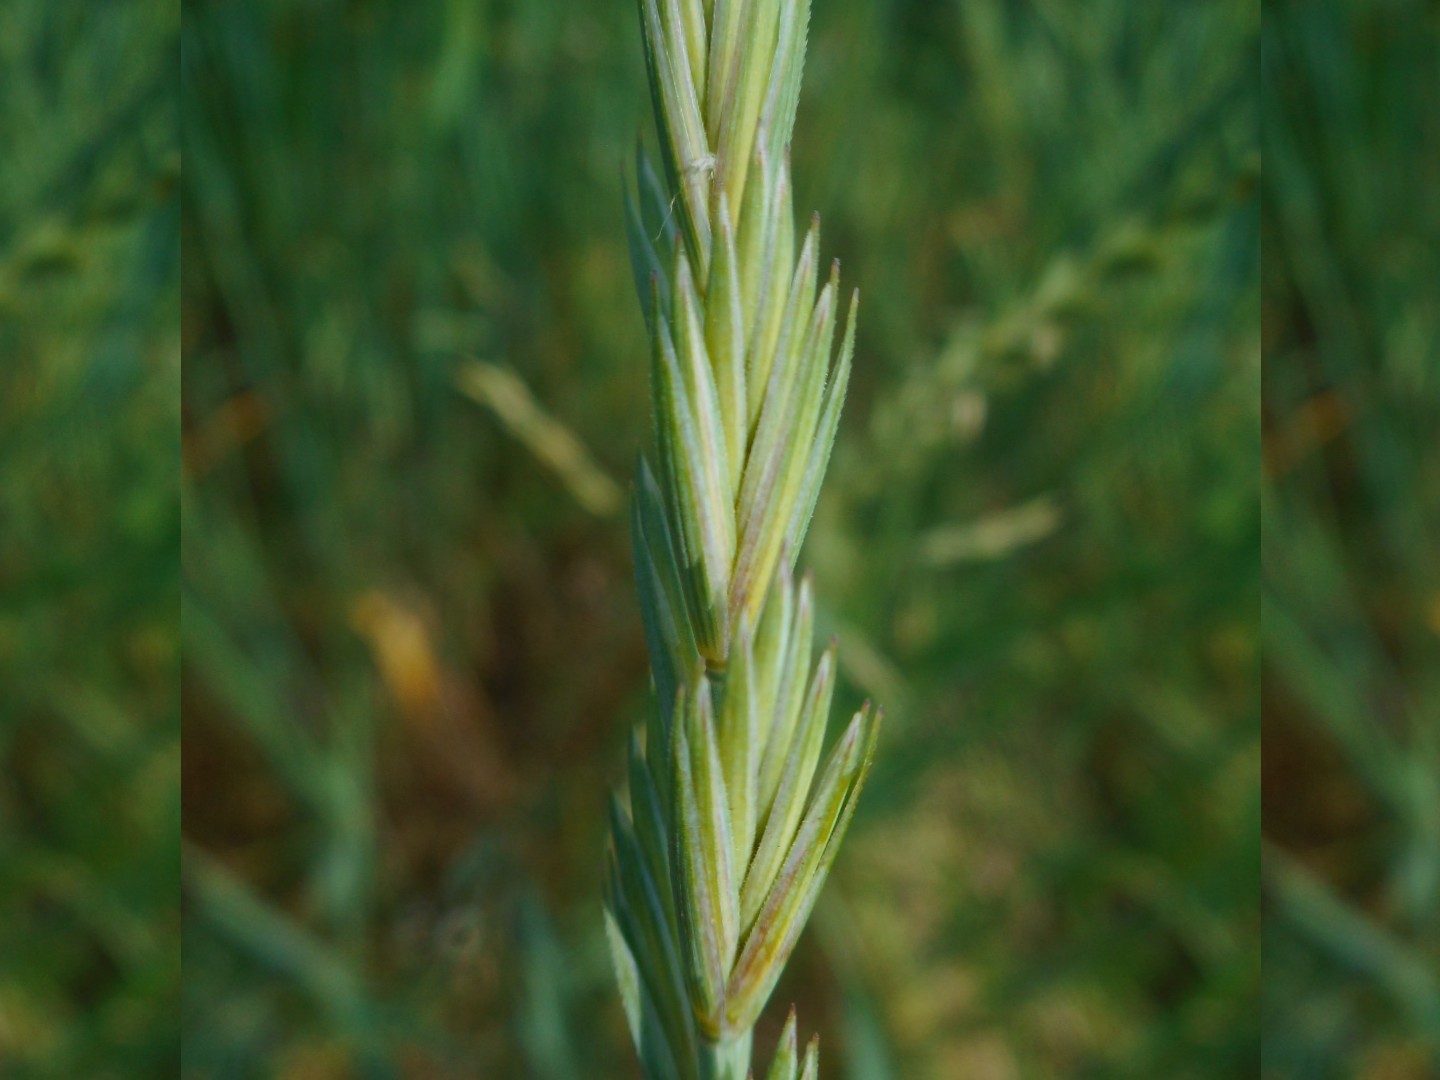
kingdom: Plantae
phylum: Tracheophyta
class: Liliopsida
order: Poales
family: Poaceae
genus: Elymus
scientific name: Elymus repens
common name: Quackgrass
